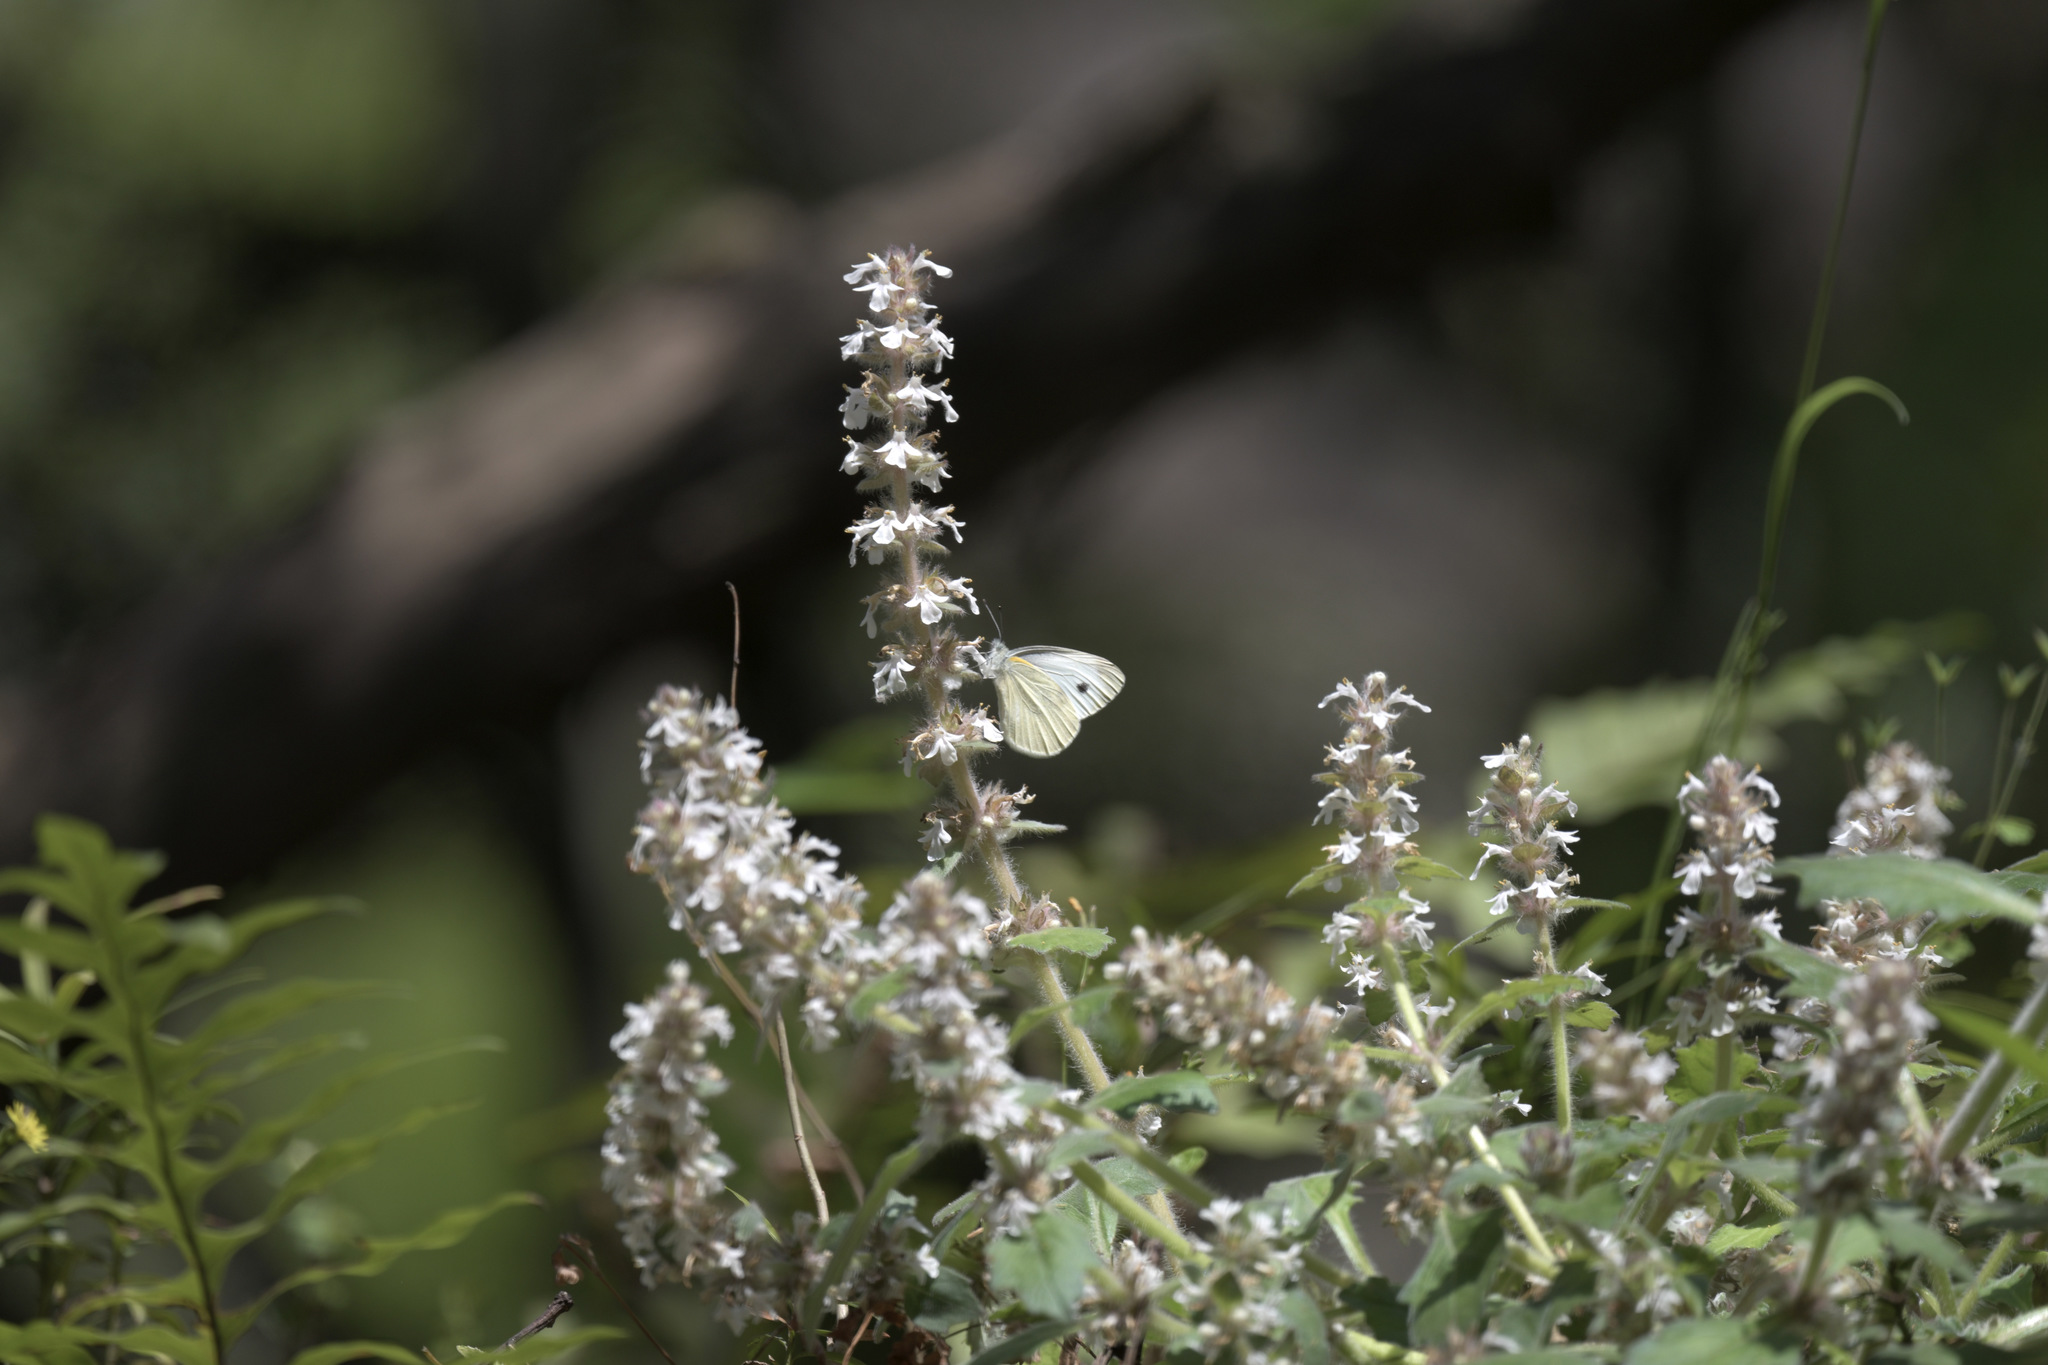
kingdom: Animalia
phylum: Arthropoda
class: Insecta
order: Lepidoptera
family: Pieridae
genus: Pieris
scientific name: Pieris canidia
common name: Indian cabbage white
